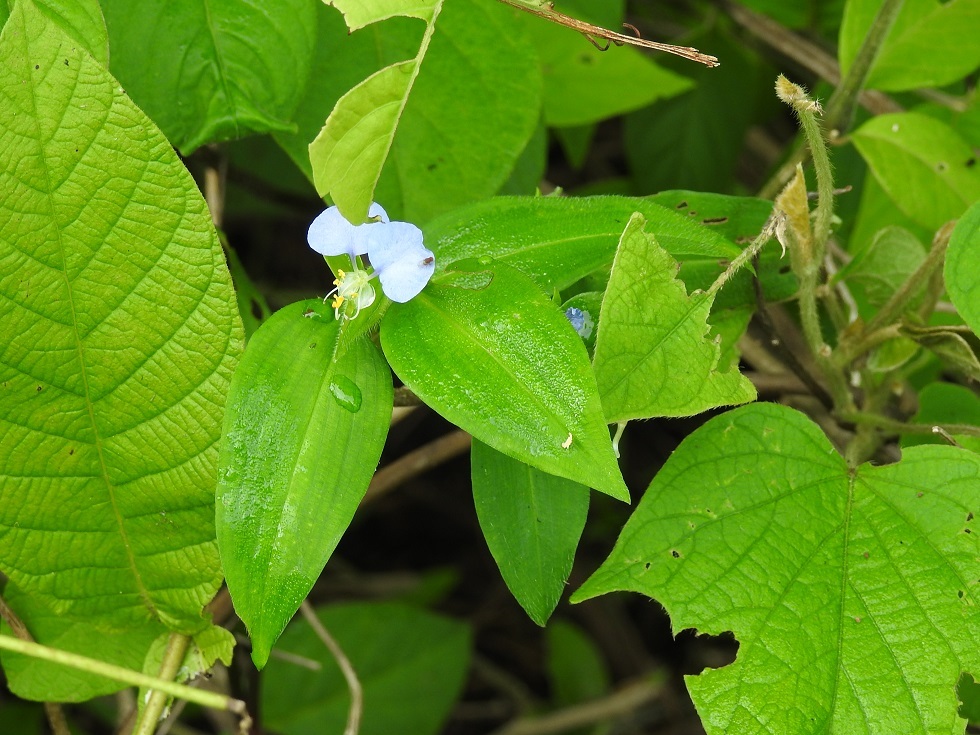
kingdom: Plantae
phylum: Tracheophyta
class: Liliopsida
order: Commelinales
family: Commelinaceae
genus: Commelina
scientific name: Commelina erecta
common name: Blousel blommetjie
